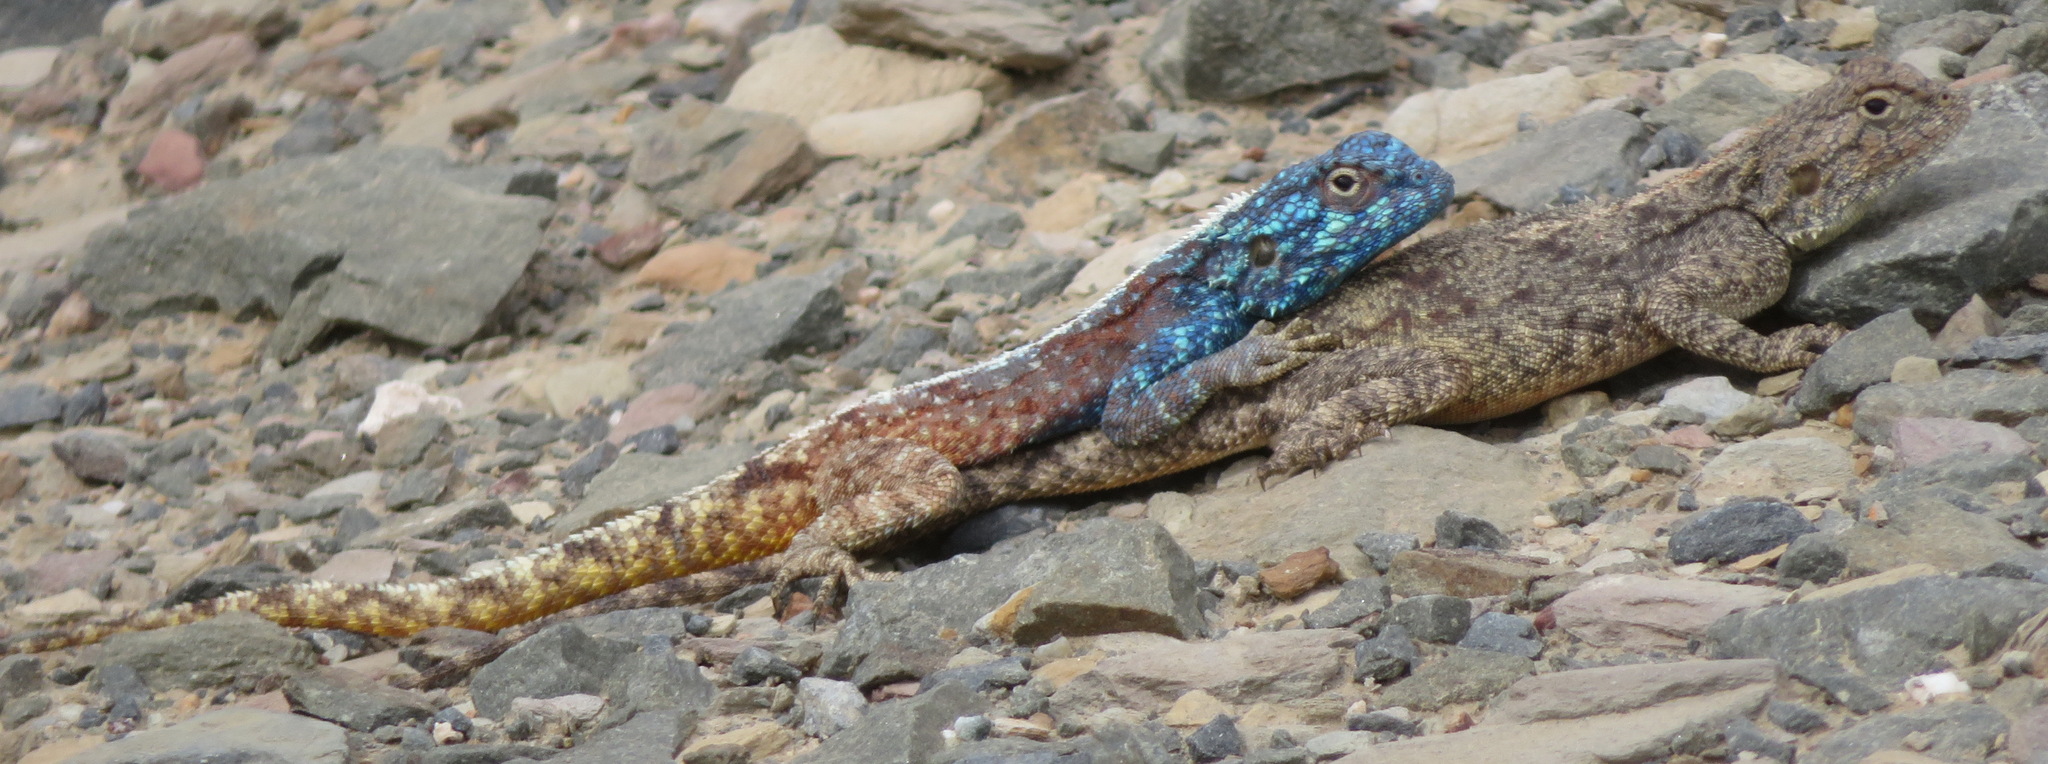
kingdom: Animalia
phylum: Chordata
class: Squamata
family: Agamidae
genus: Agama
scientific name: Agama atra
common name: Southern african rock agama
